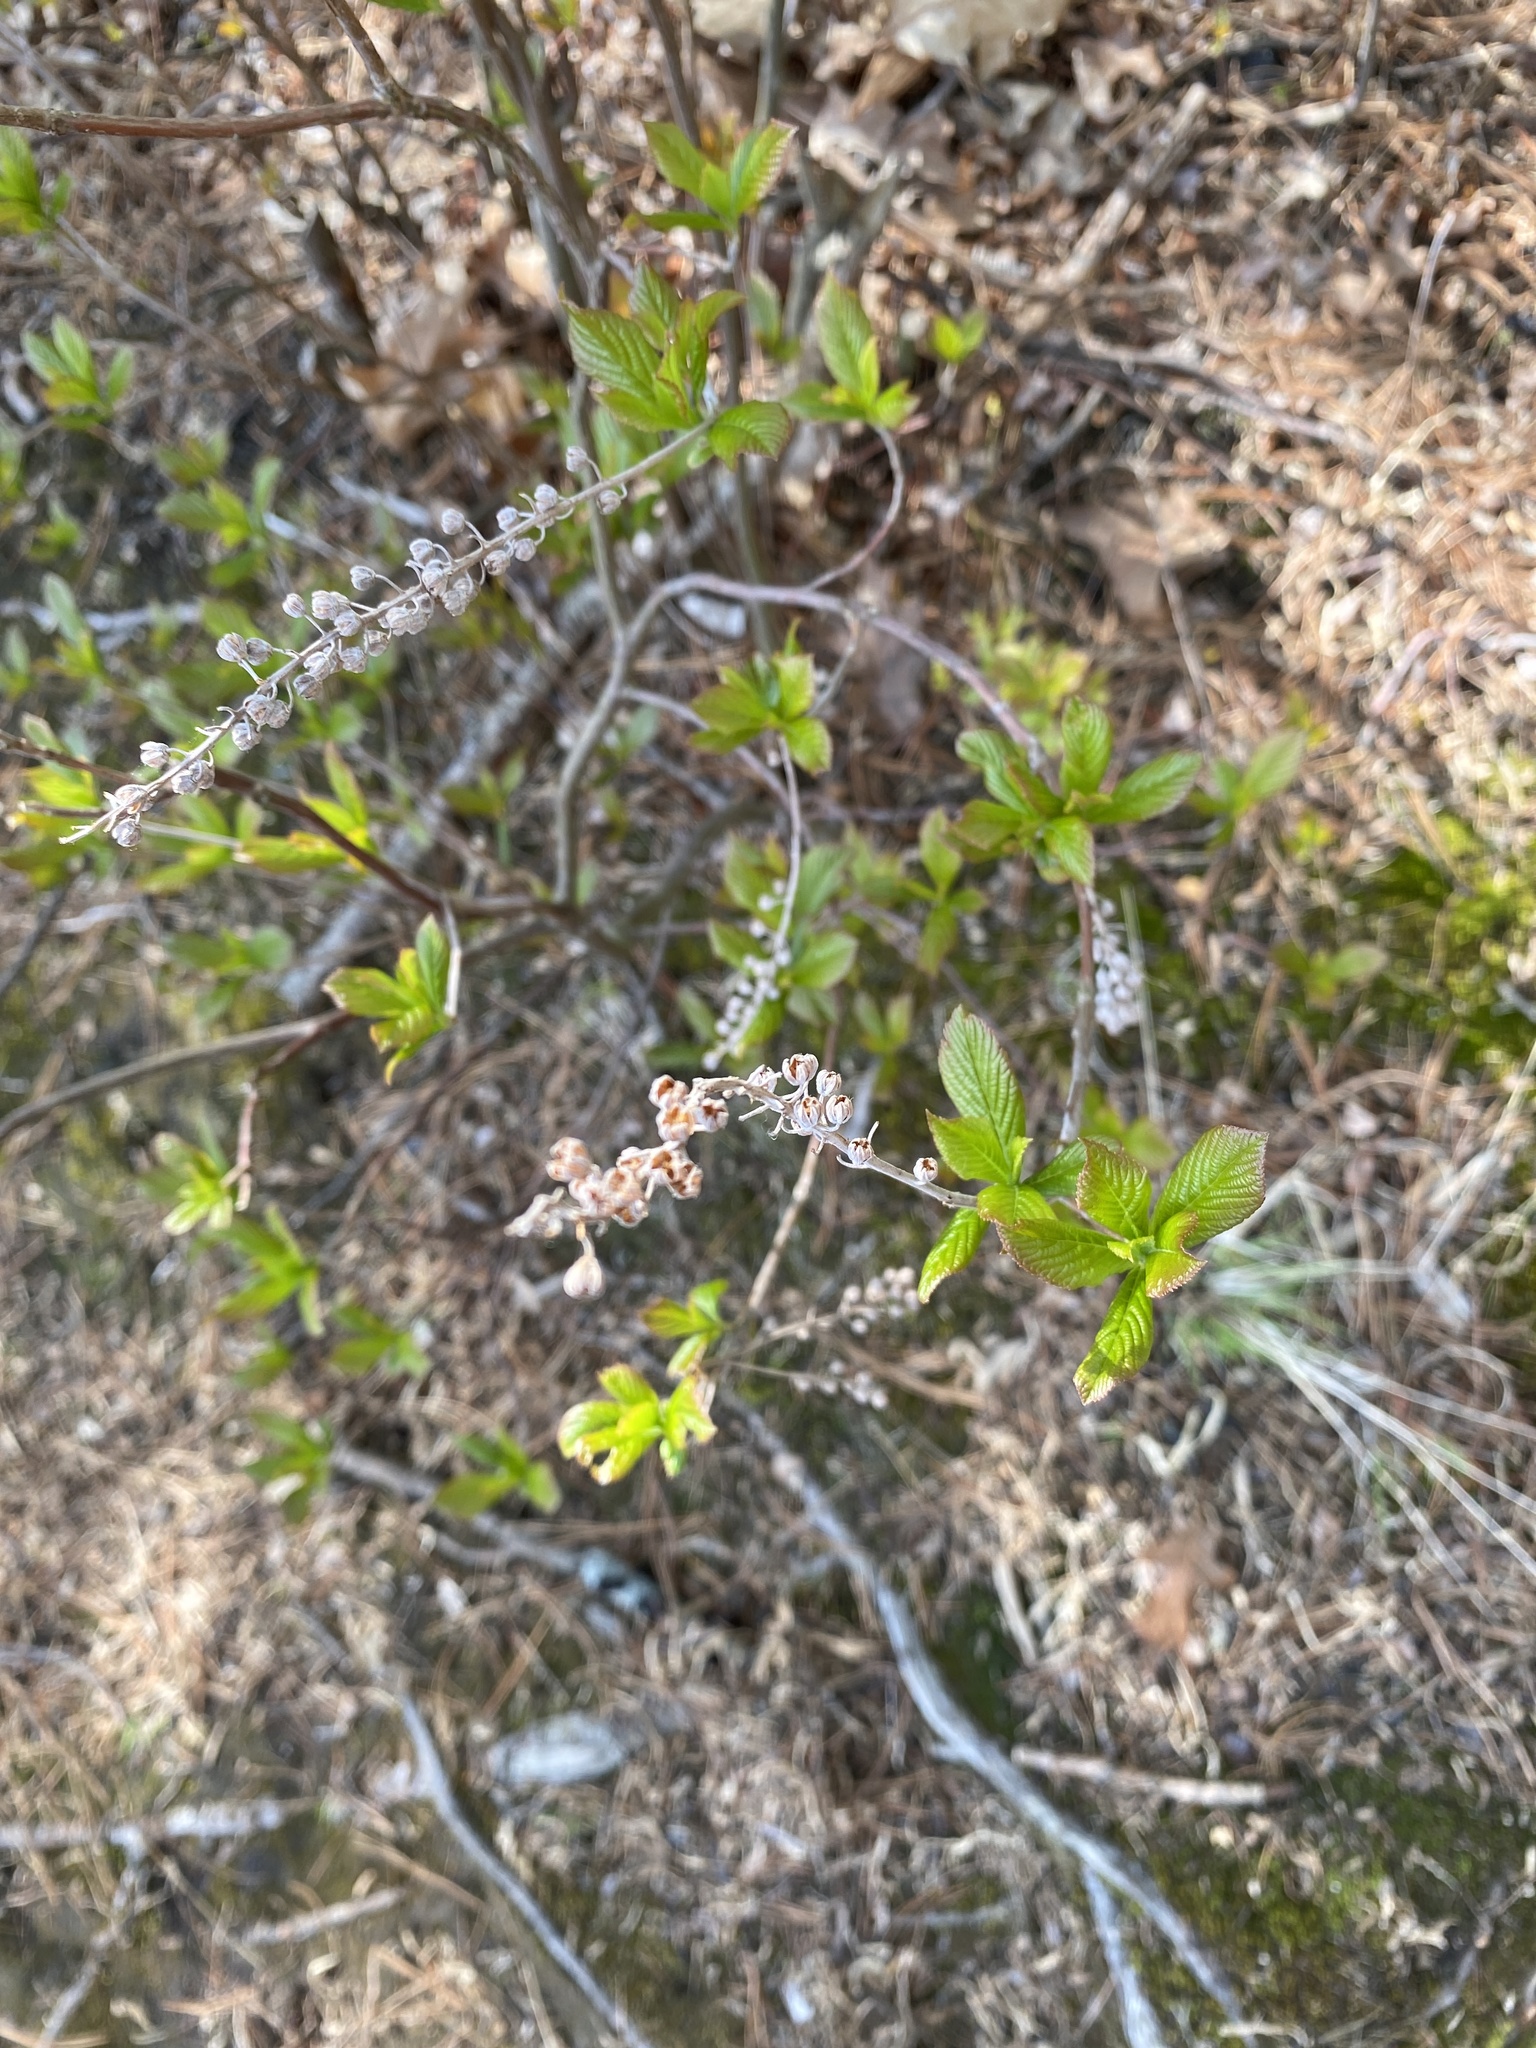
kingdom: Plantae
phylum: Tracheophyta
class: Magnoliopsida
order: Ericales
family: Clethraceae
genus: Clethra
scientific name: Clethra alnifolia
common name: Sweet pepperbush
